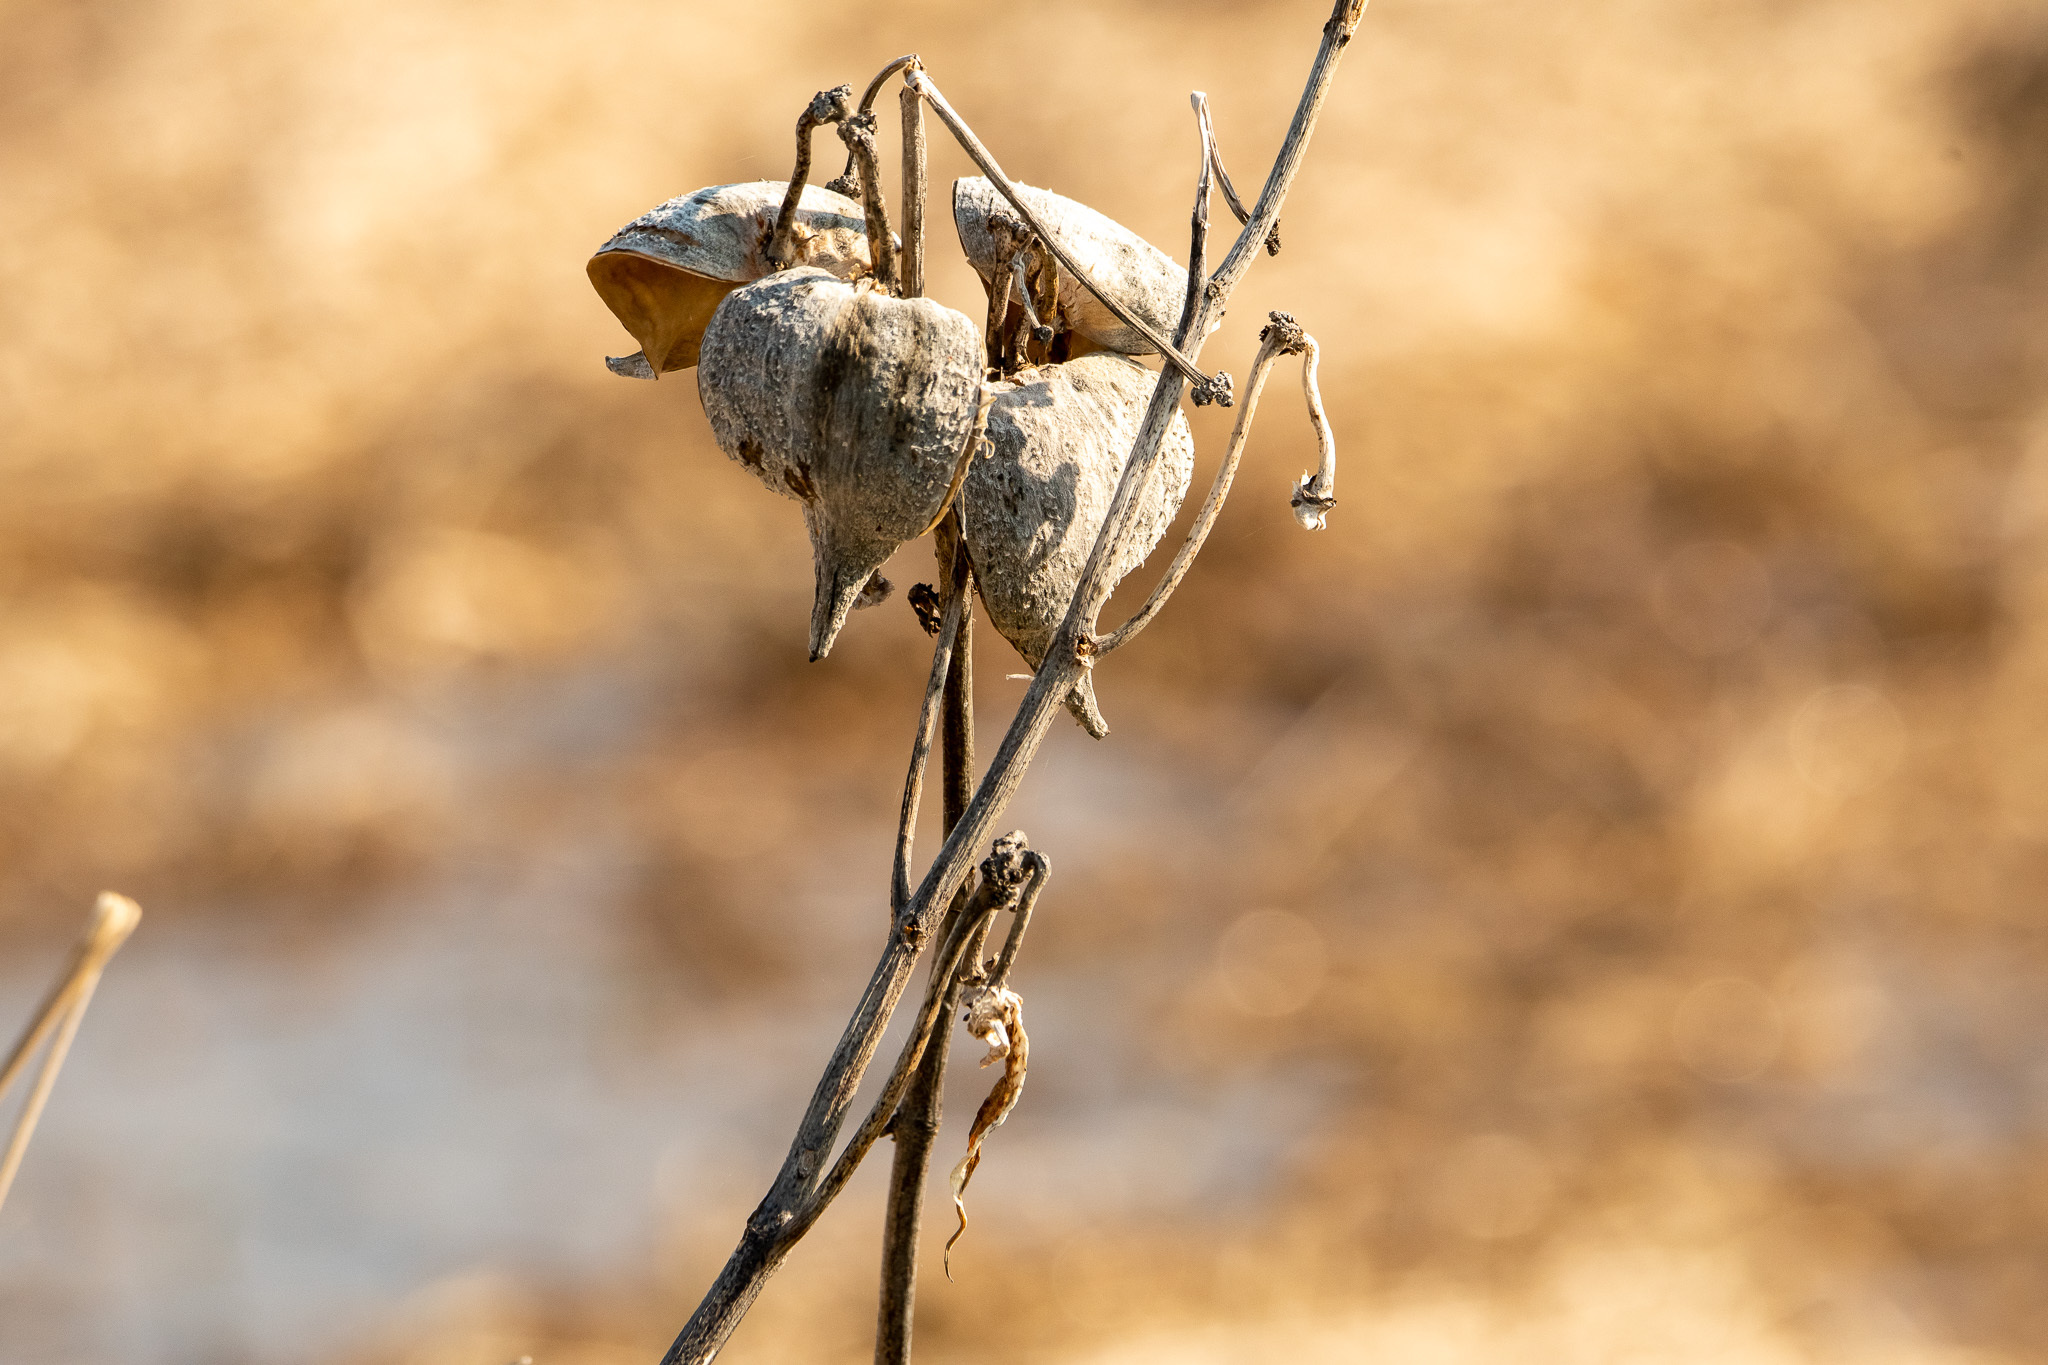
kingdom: Plantae
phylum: Tracheophyta
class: Magnoliopsida
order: Gentianales
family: Apocynaceae
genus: Asclepias
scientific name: Asclepias syriaca
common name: Common milkweed
